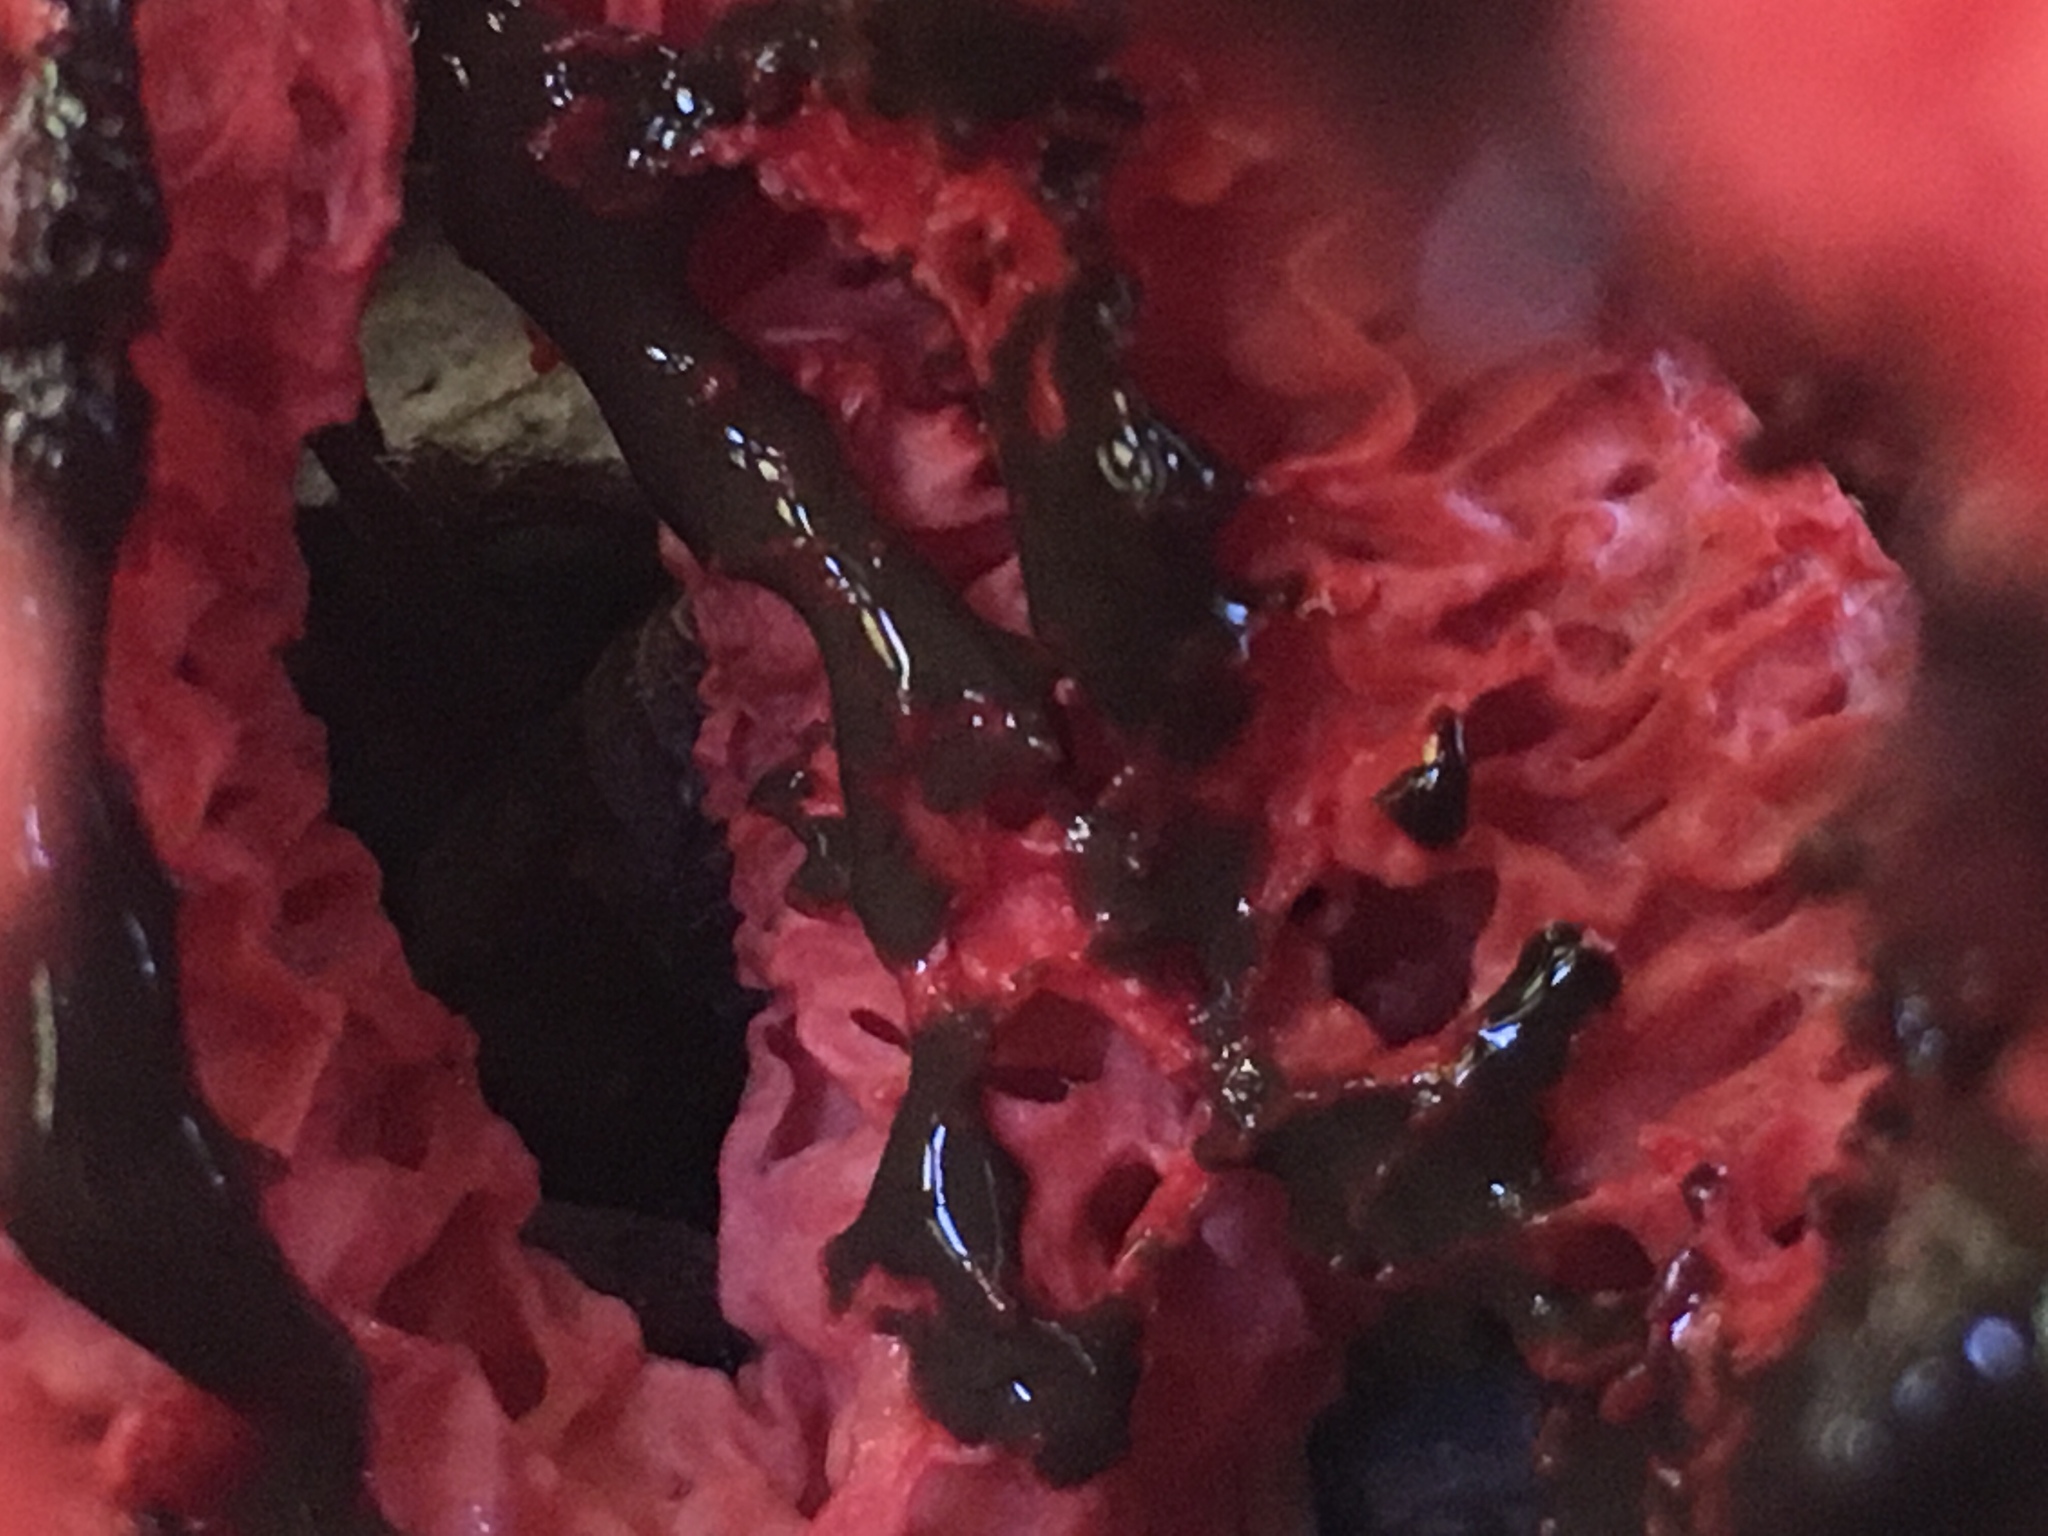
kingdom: Fungi
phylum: Basidiomycota
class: Agaricomycetes
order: Phallales
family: Phallaceae
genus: Clathrus
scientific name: Clathrus ruber
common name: Red cage
